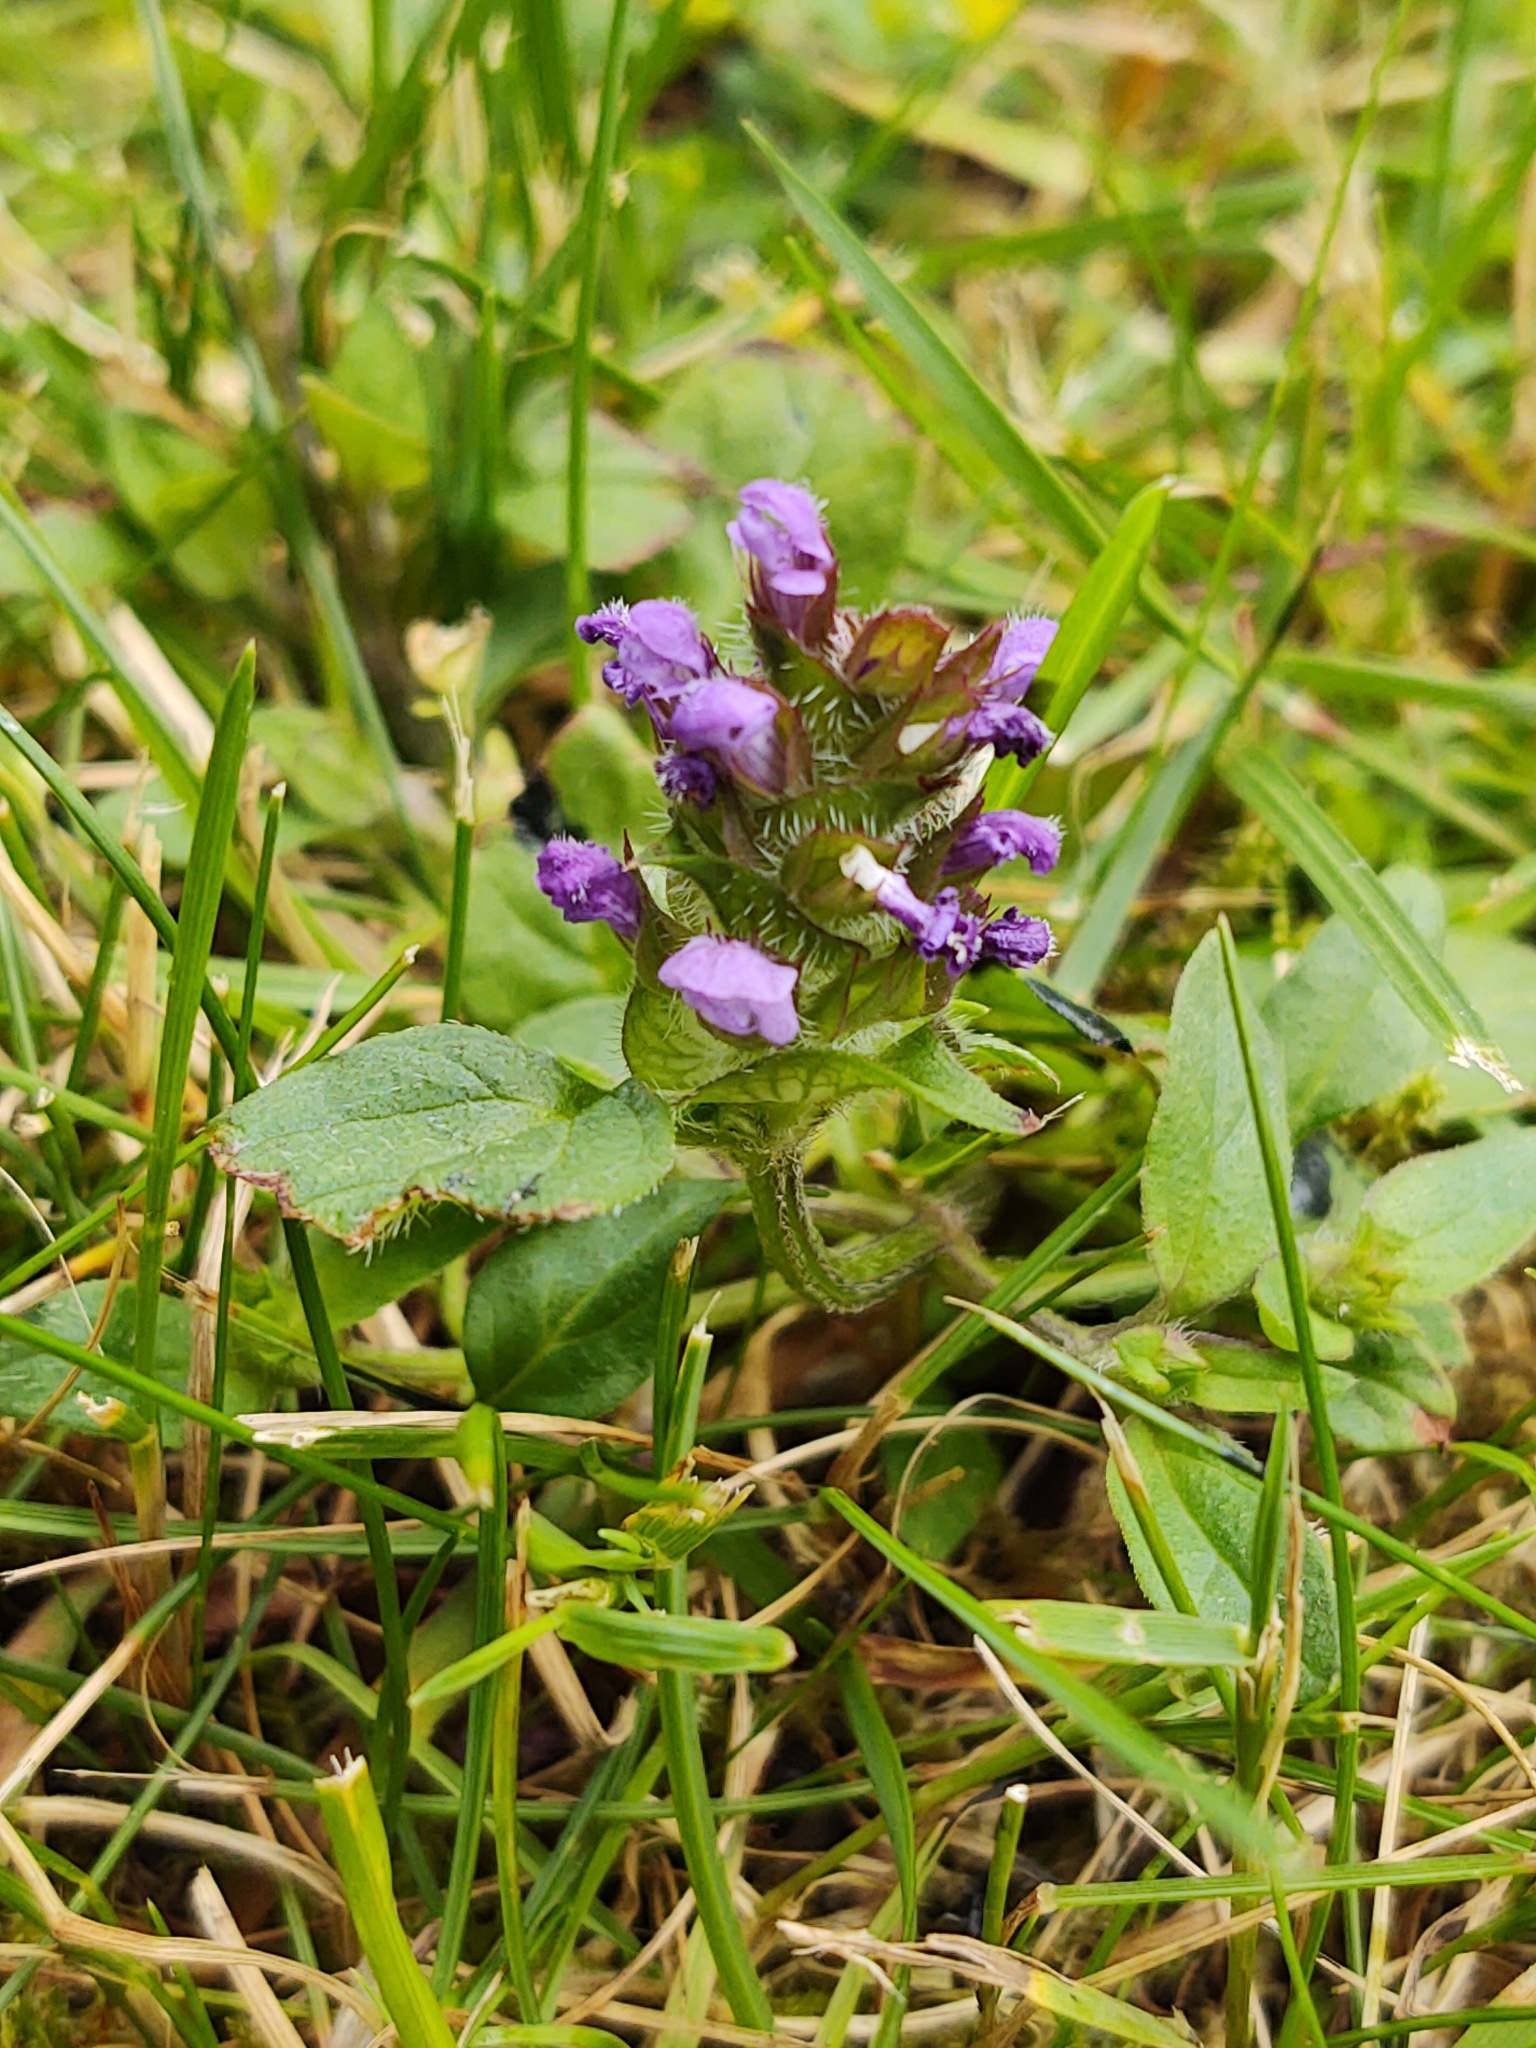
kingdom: Plantae
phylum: Tracheophyta
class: Magnoliopsida
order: Lamiales
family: Lamiaceae
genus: Prunella
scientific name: Prunella vulgaris
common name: Heal-all
